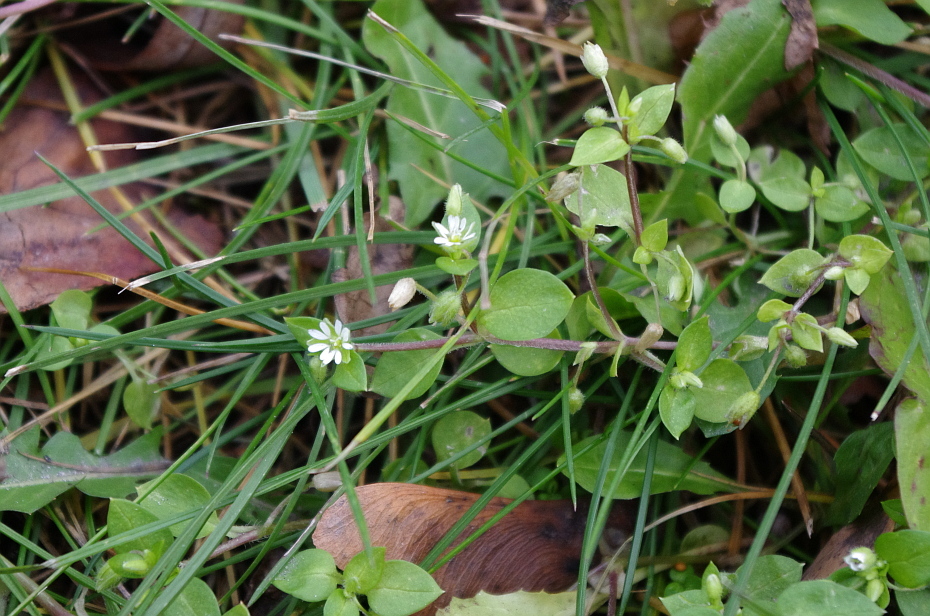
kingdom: Plantae
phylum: Tracheophyta
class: Magnoliopsida
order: Caryophyllales
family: Caryophyllaceae
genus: Stellaria
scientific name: Stellaria media
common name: Common chickweed
